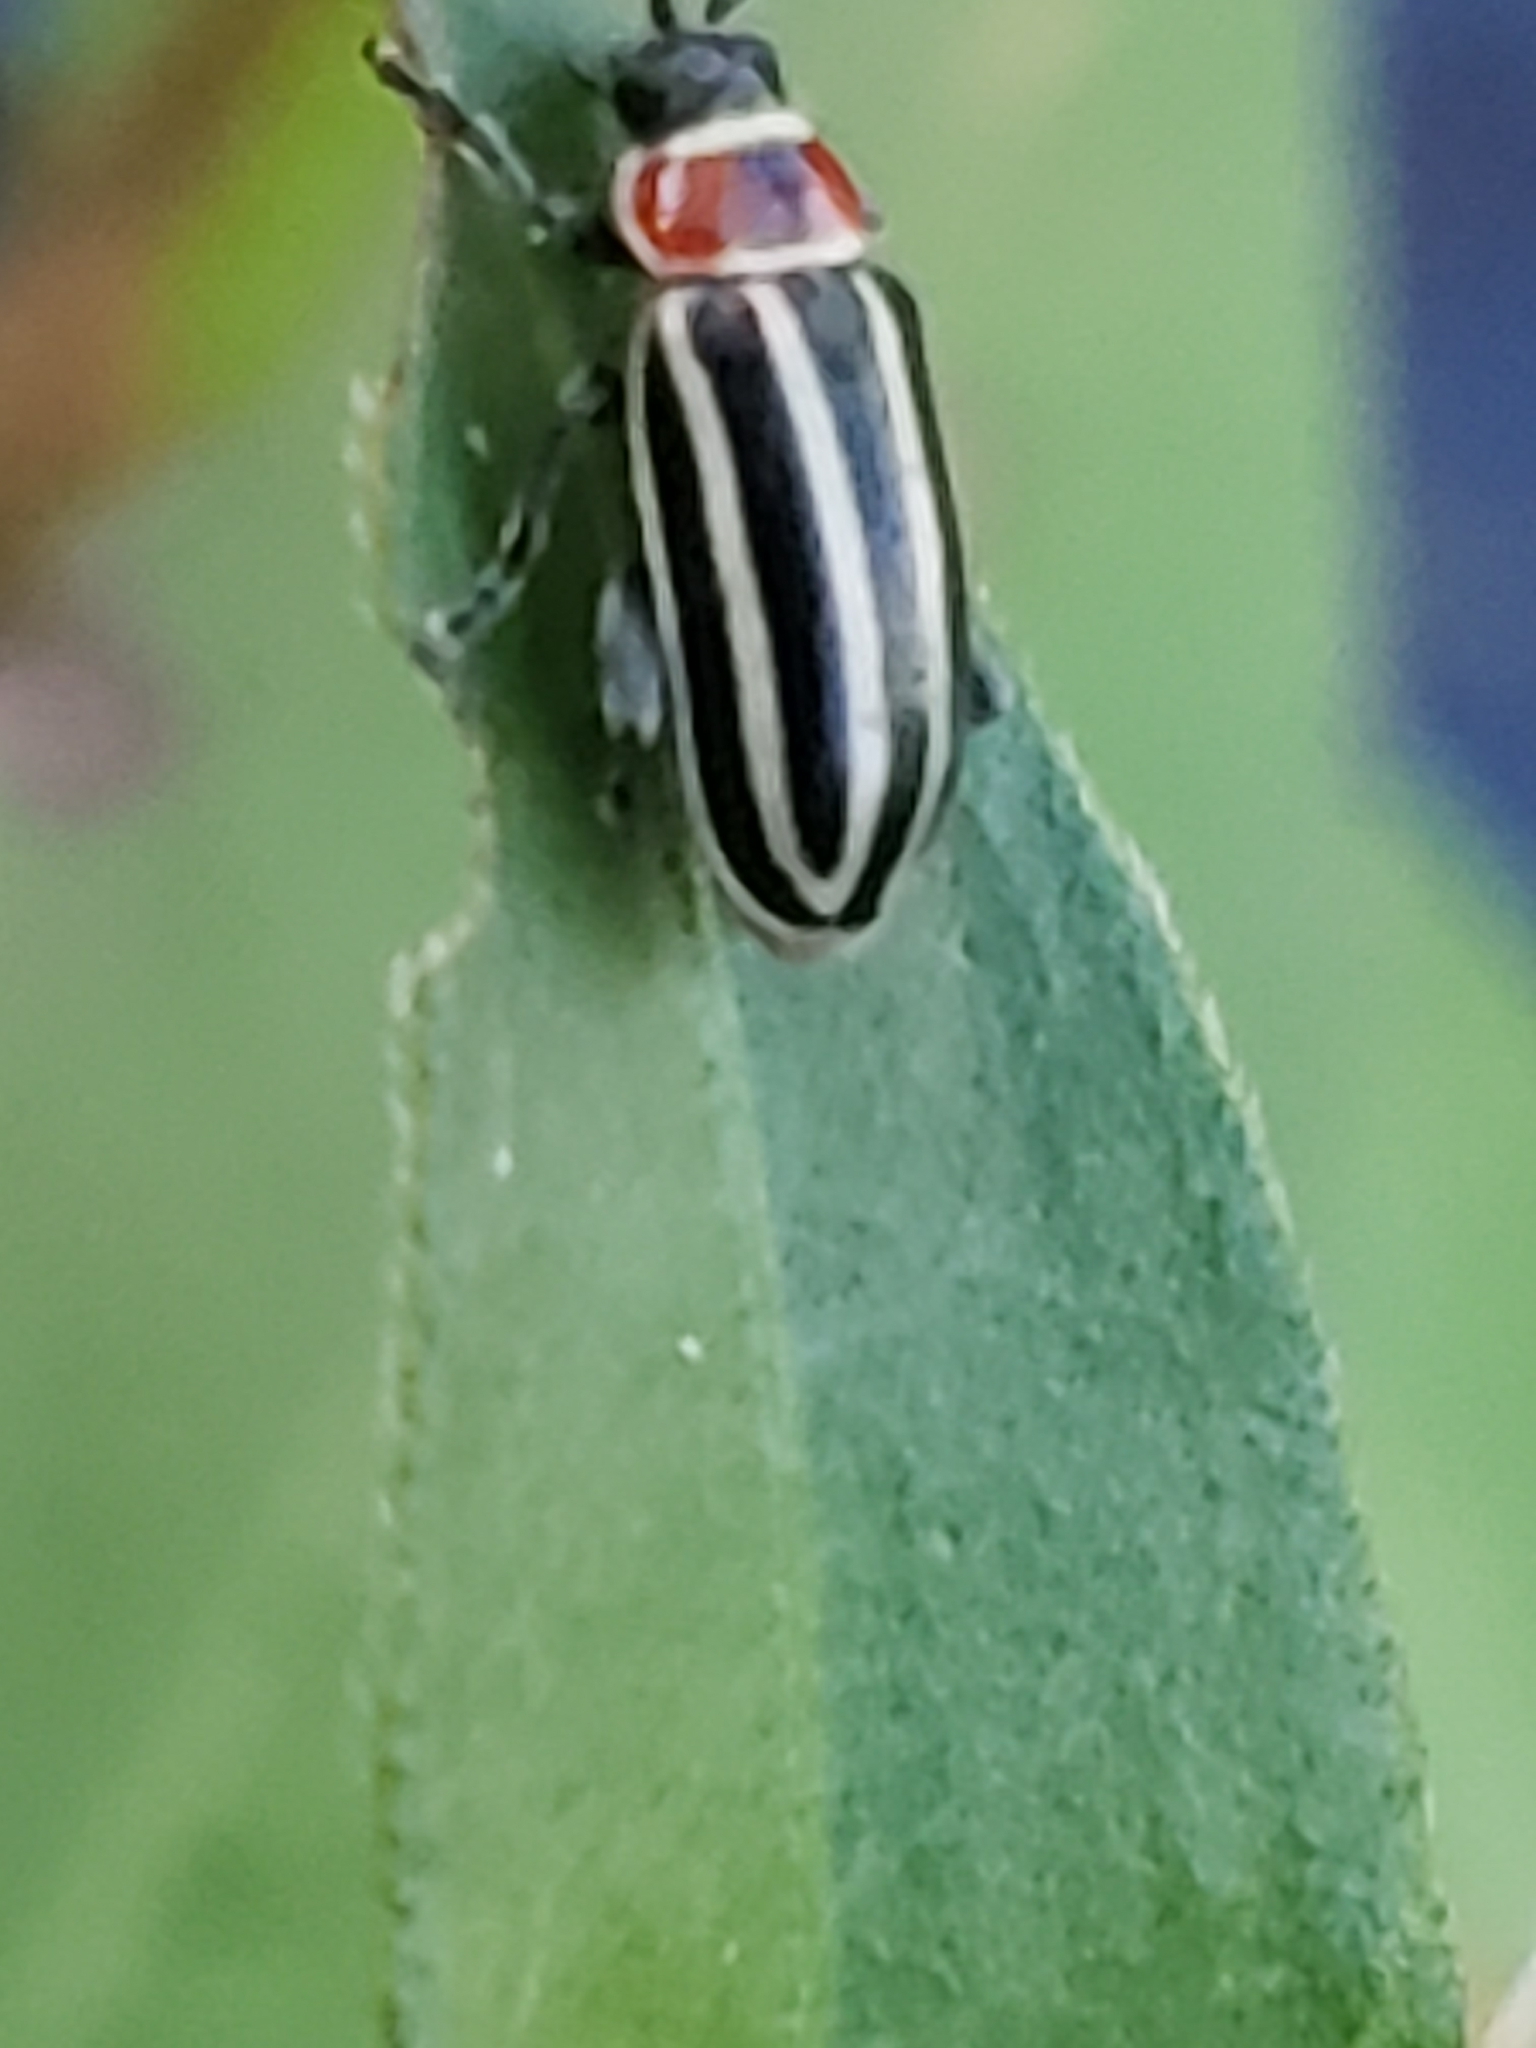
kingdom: Animalia
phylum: Arthropoda
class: Insecta
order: Coleoptera
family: Chrysomelidae
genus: Disonycha
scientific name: Disonycha pensylvanica
